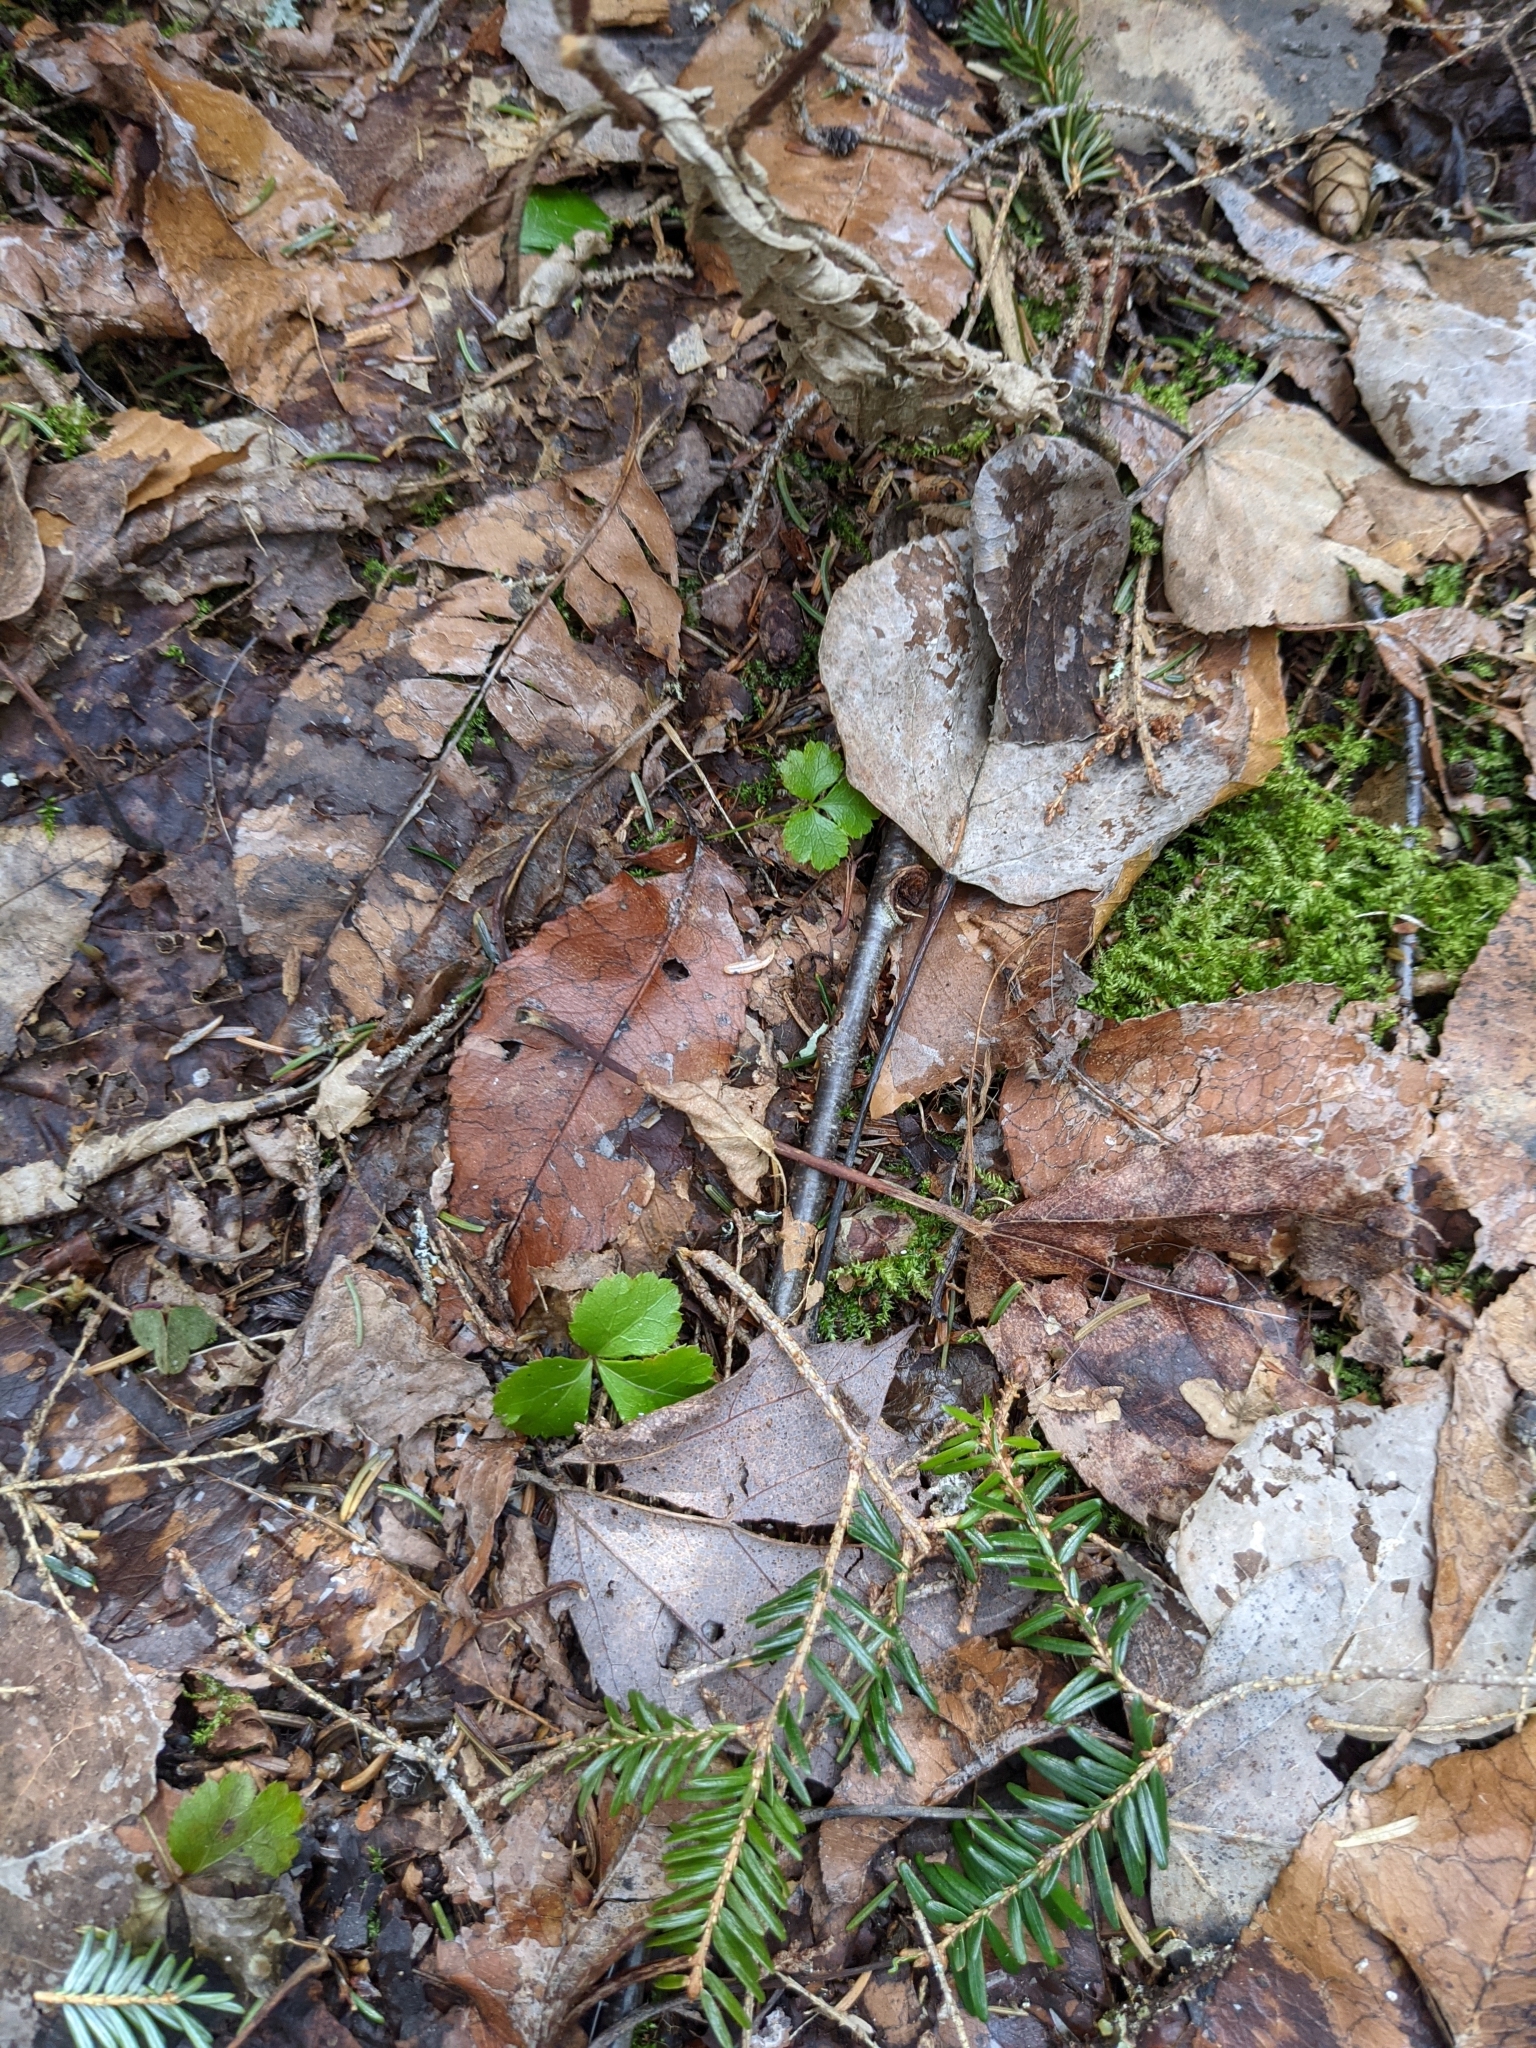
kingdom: Plantae
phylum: Tracheophyta
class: Magnoliopsida
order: Ranunculales
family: Ranunculaceae
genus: Coptis
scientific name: Coptis trifolia
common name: Canker-root
